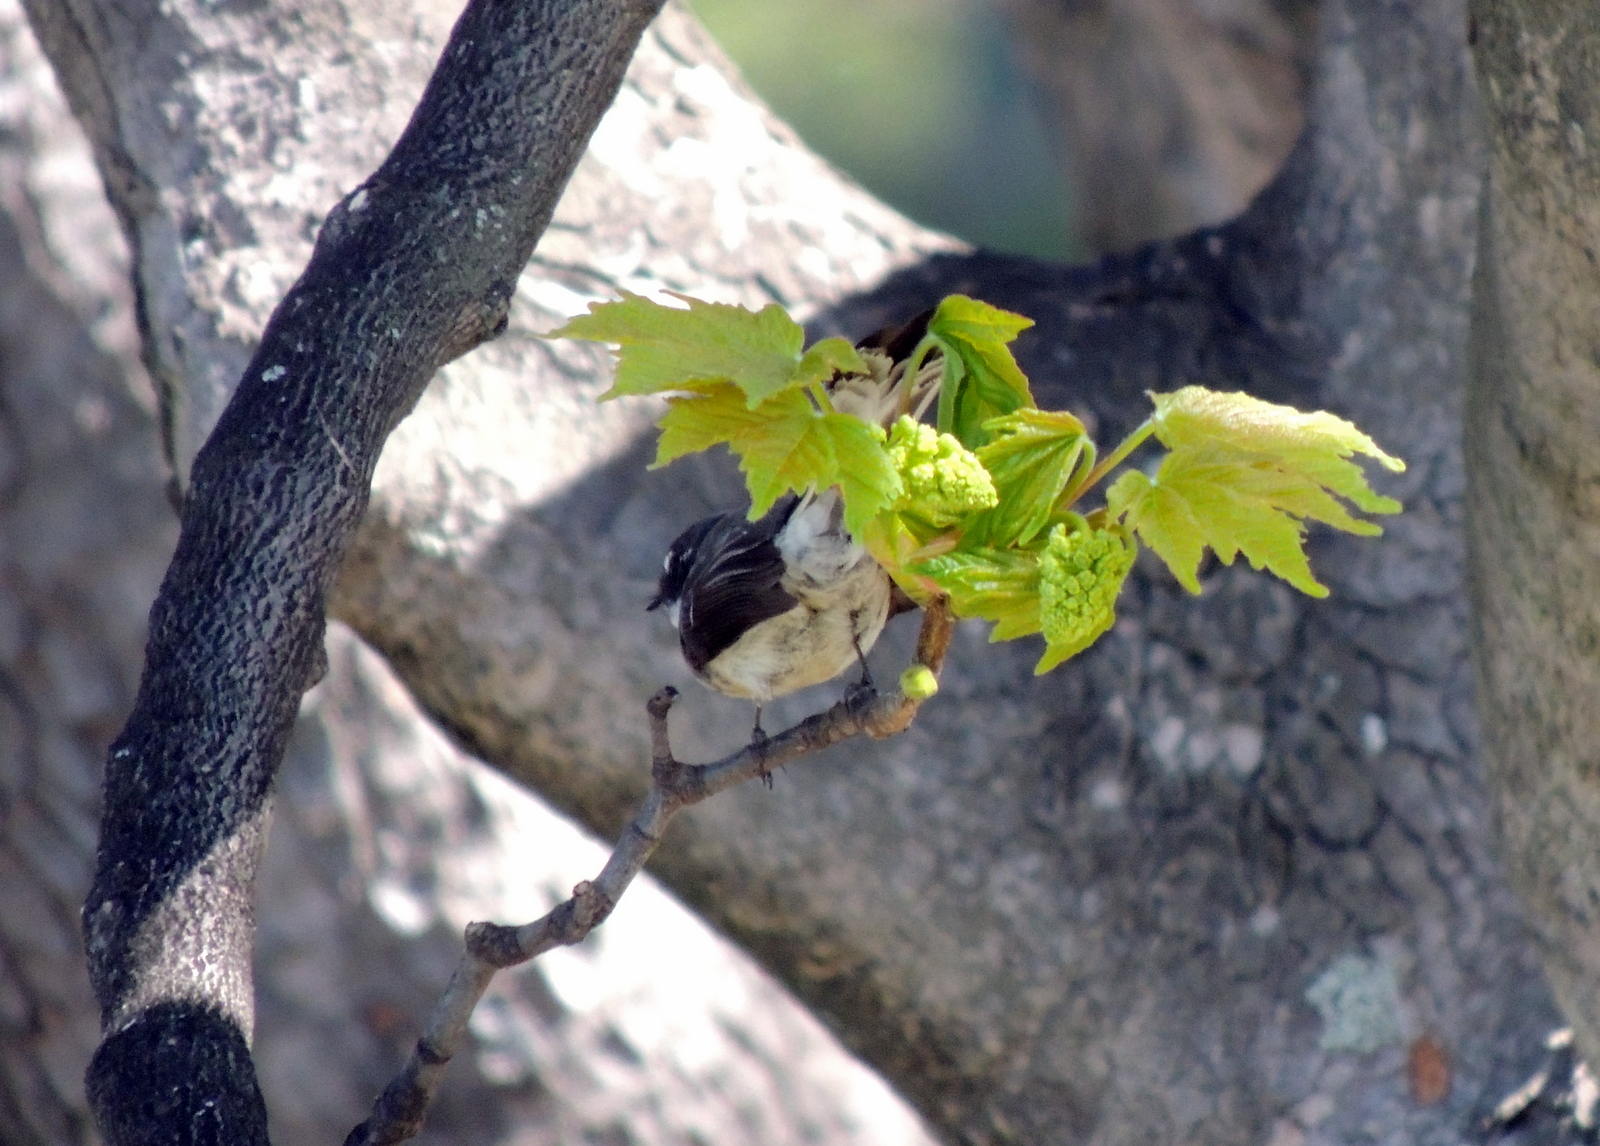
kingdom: Animalia
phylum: Chordata
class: Aves
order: Passeriformes
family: Rhipiduridae
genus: Rhipidura
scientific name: Rhipidura albiscapa
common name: Grey fantail
